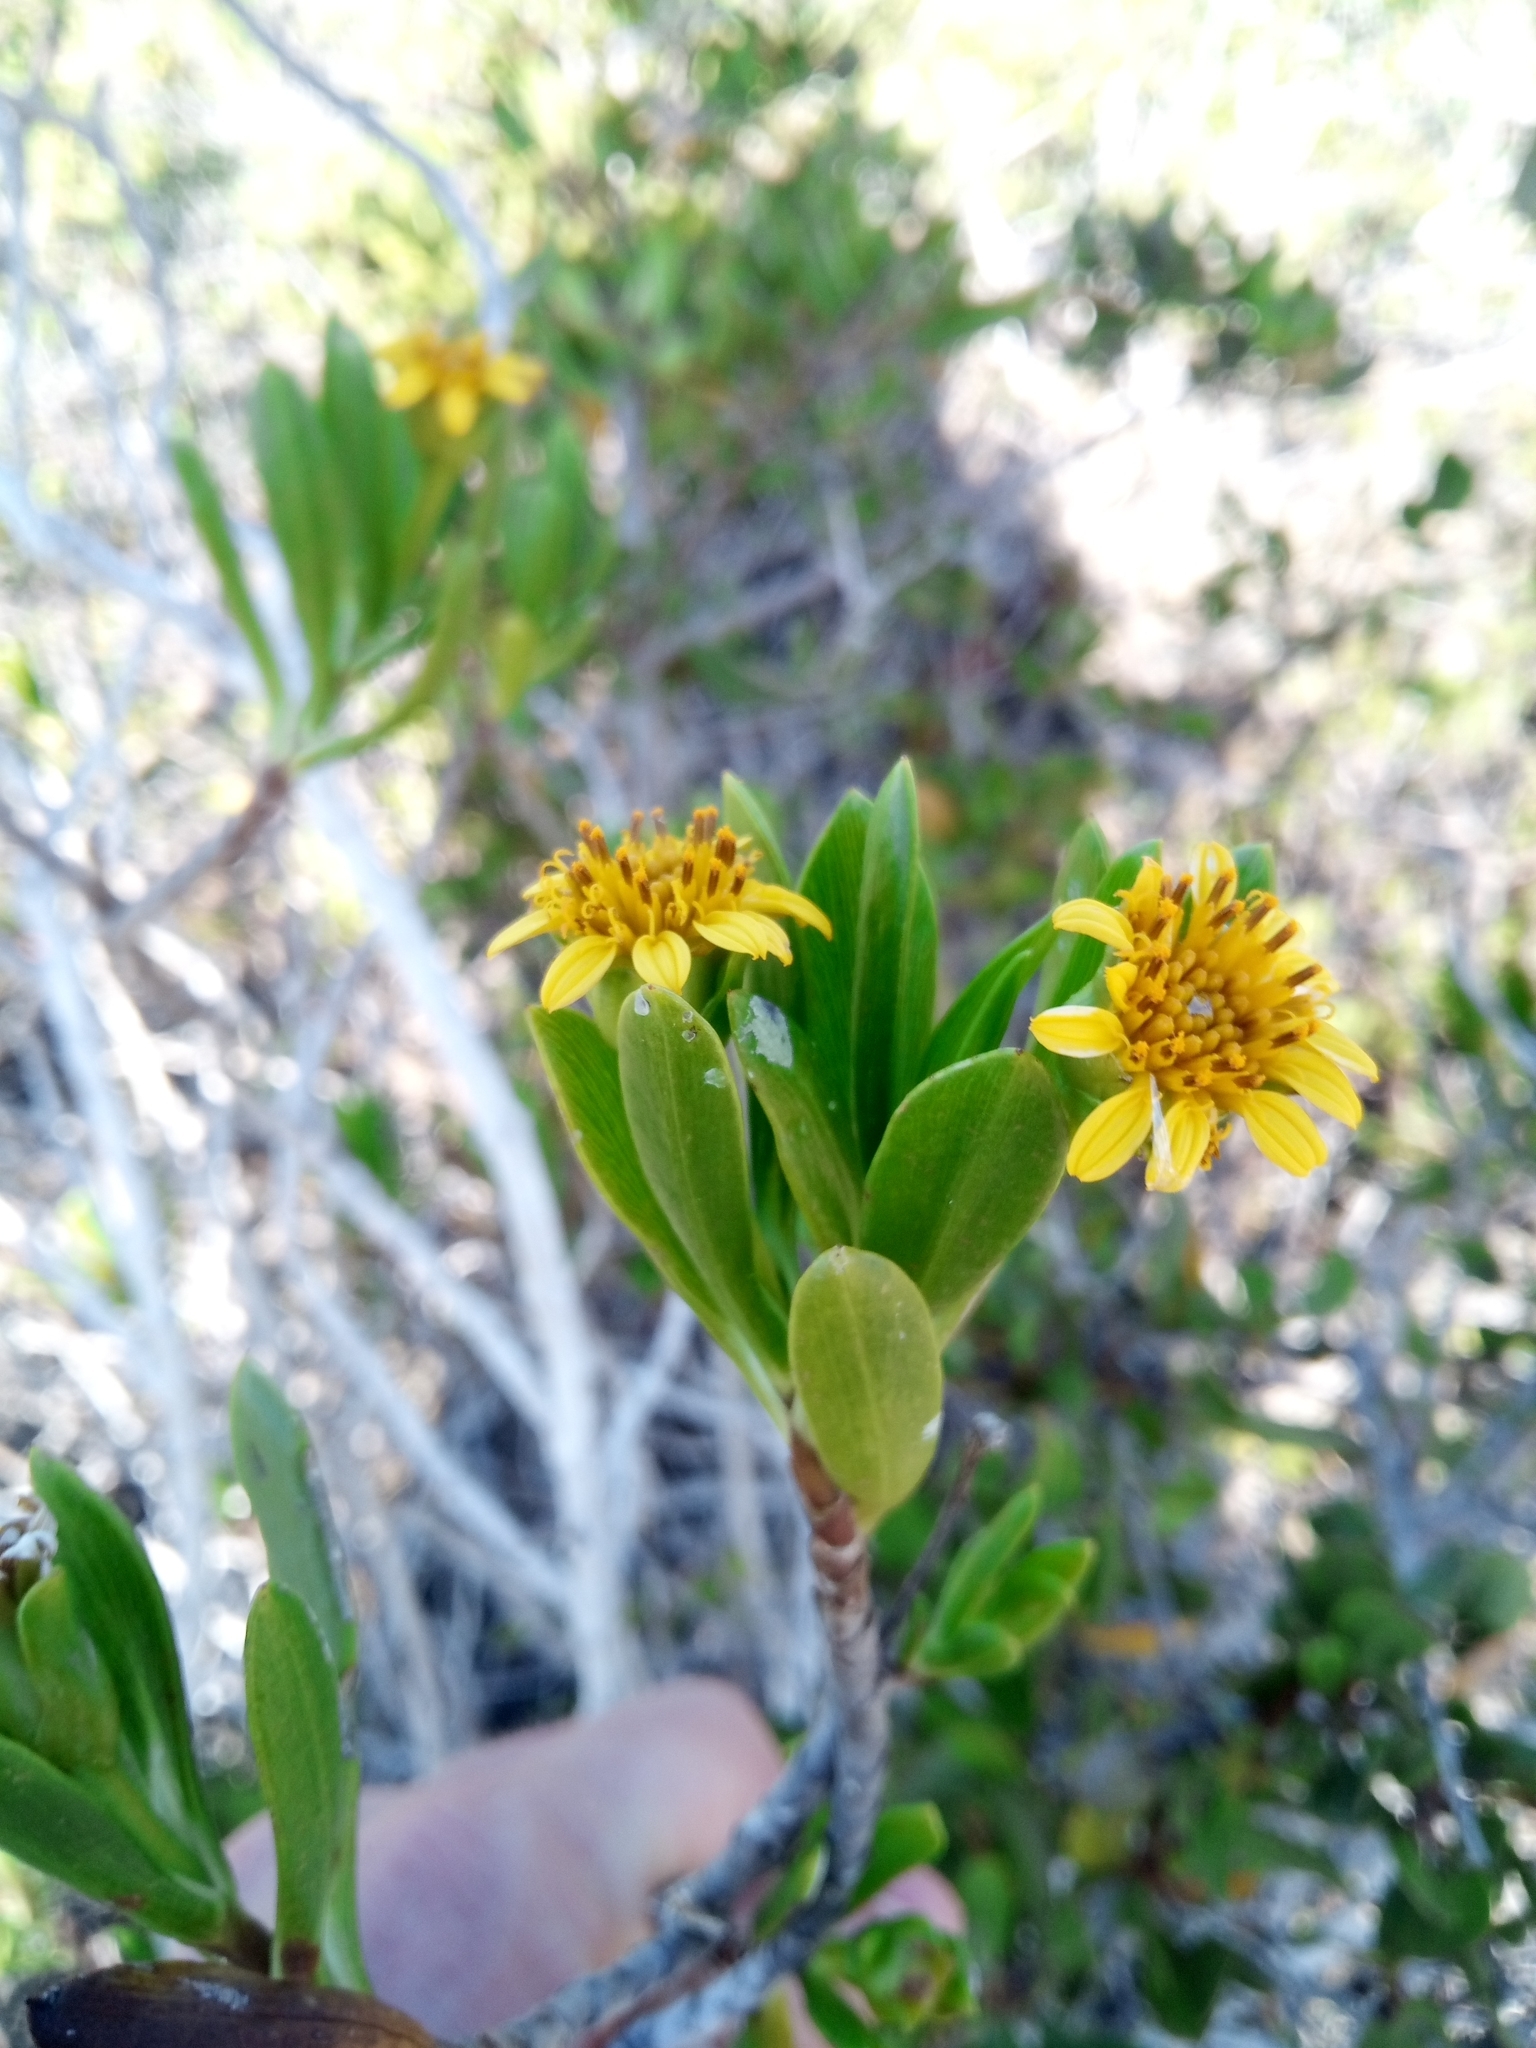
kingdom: Plantae
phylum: Tracheophyta
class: Magnoliopsida
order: Asterales
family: Asteraceae
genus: Borrichia
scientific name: Borrichia arborescens
